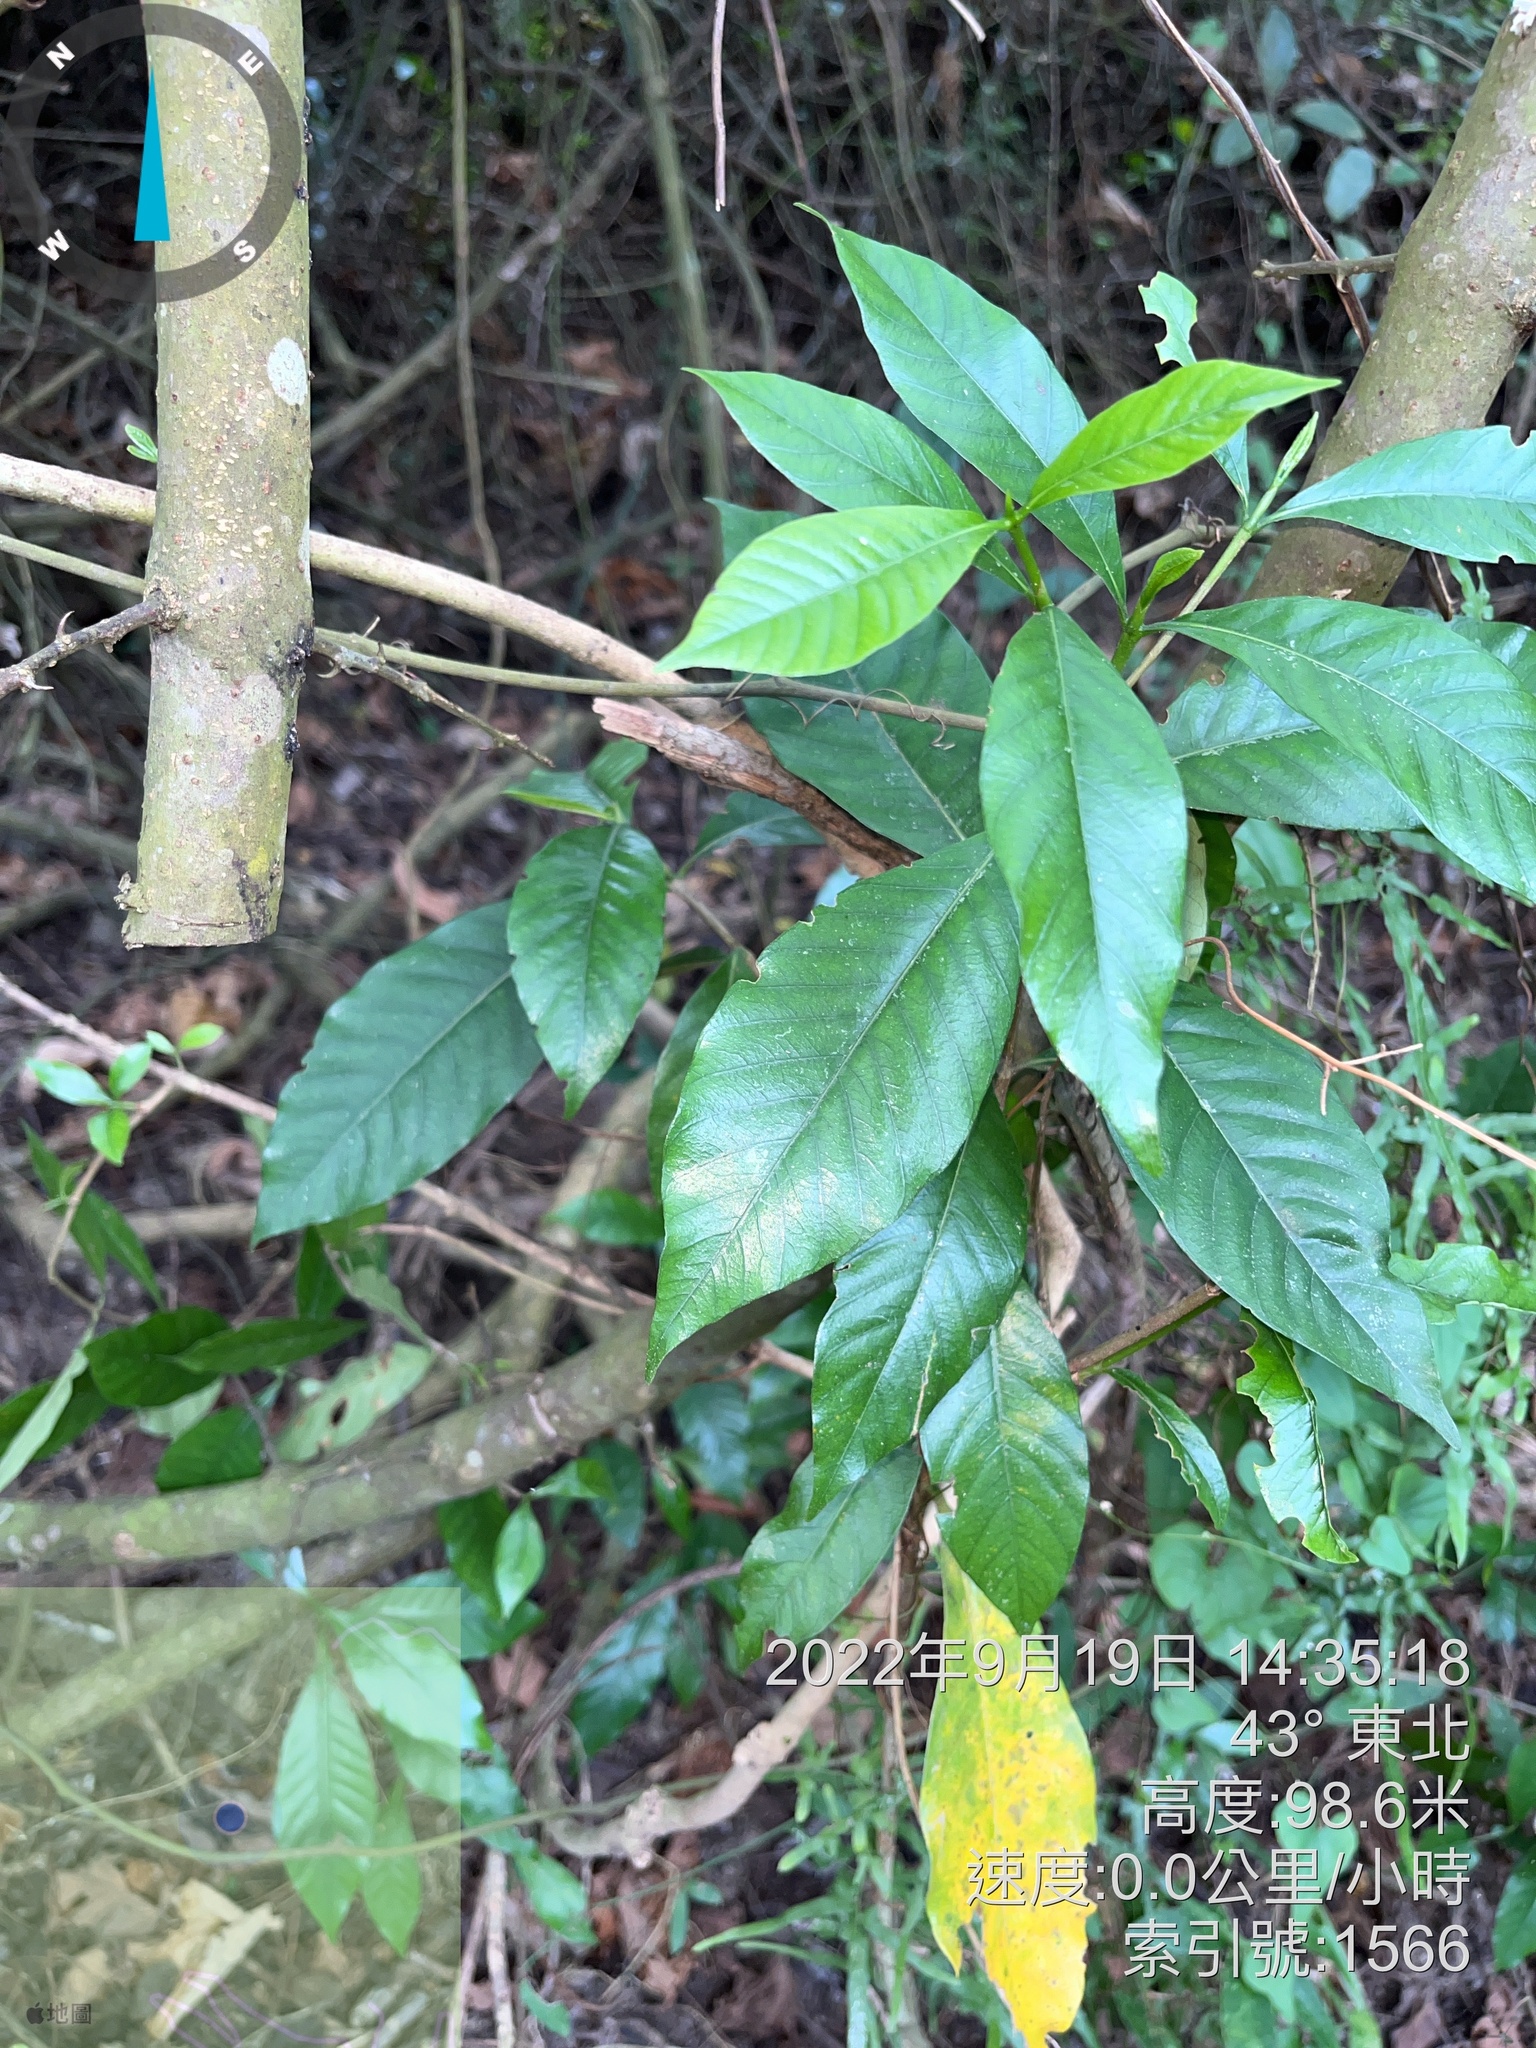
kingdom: Plantae
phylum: Tracheophyta
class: Magnoliopsida
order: Gentianales
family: Rubiaceae
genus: Gardenia
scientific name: Gardenia jasminoides
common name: Cape-jasmine
